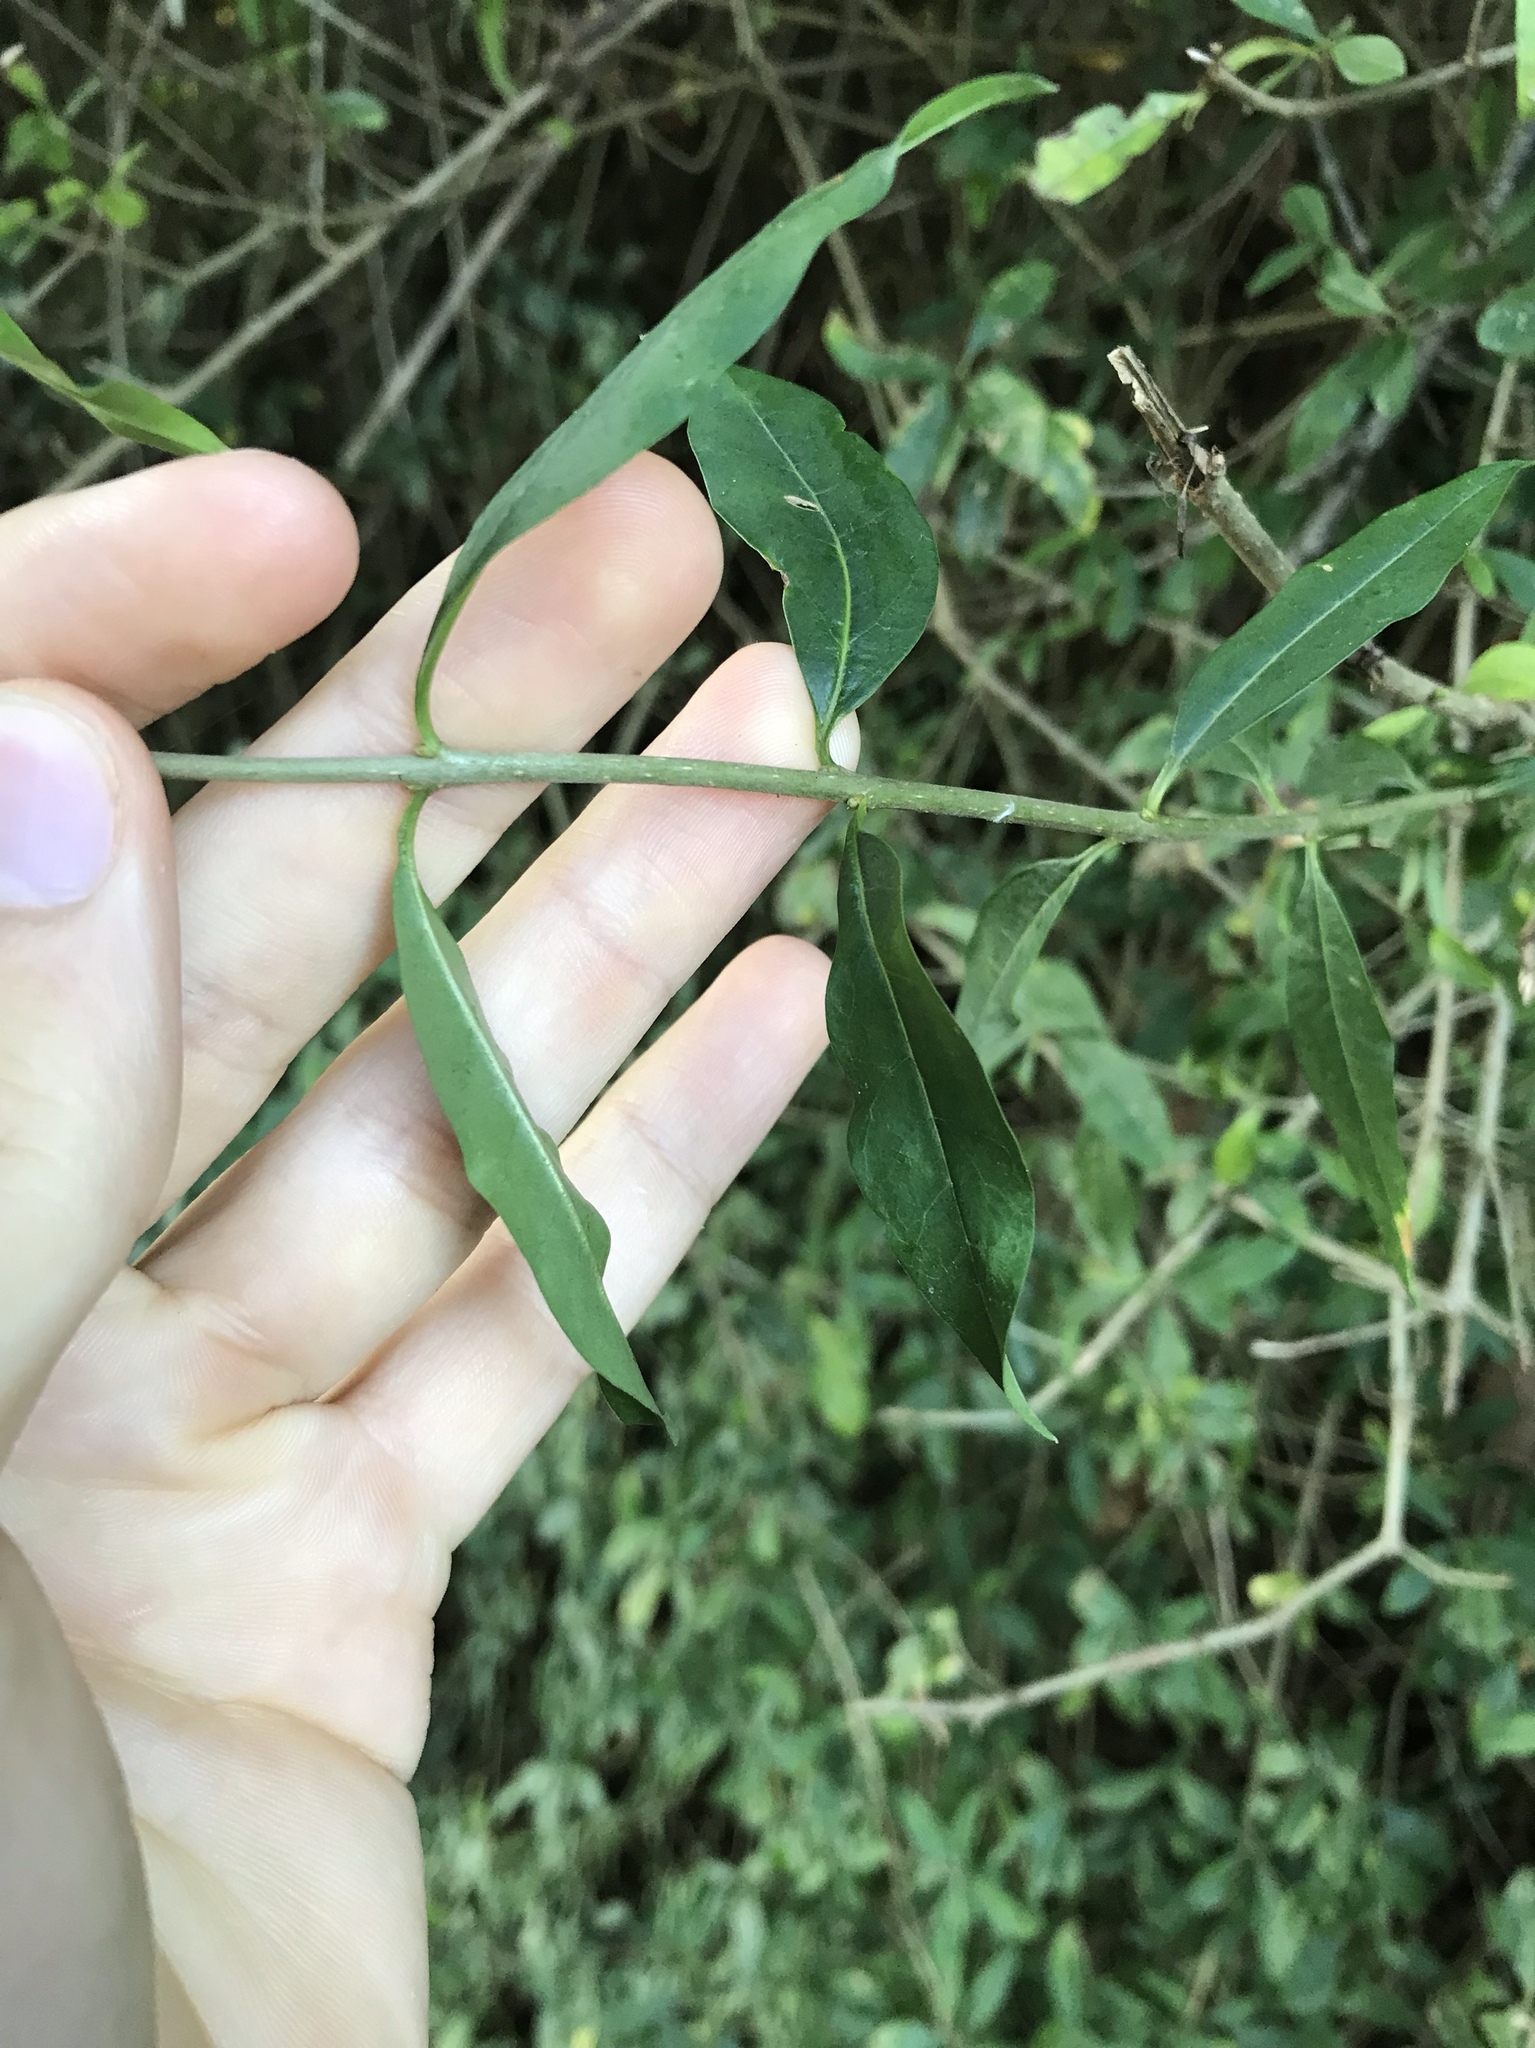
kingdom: Plantae
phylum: Tracheophyta
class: Magnoliopsida
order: Lamiales
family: Oleaceae
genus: Ligustrum
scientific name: Ligustrum vulgare
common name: Wild privet
